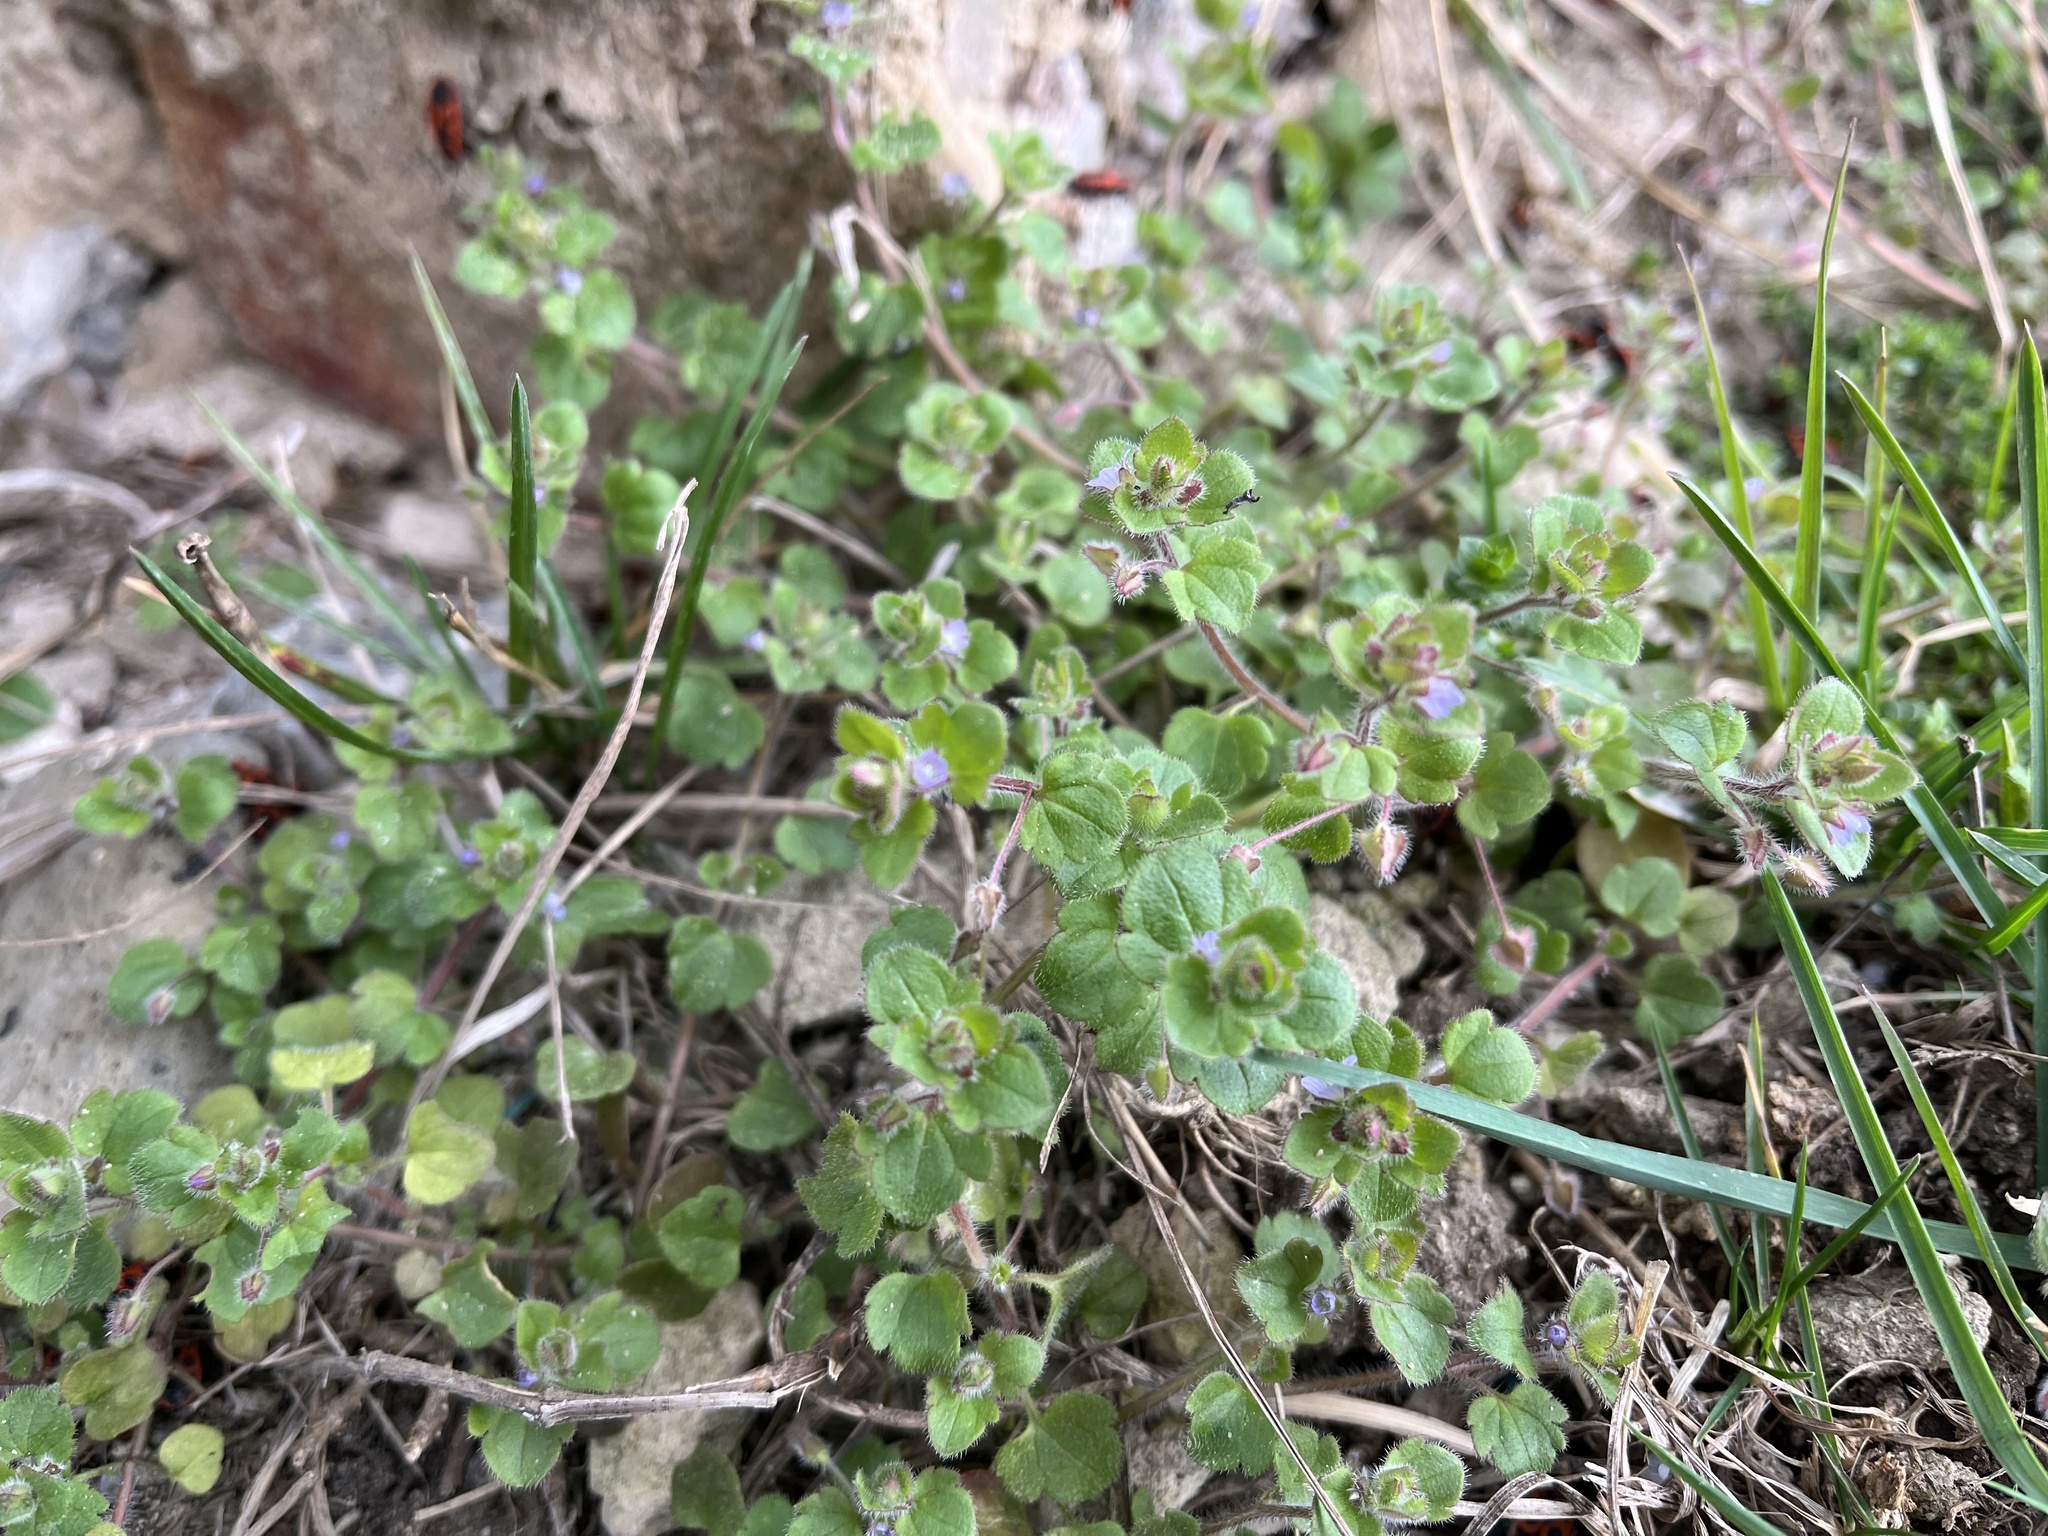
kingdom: Plantae
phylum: Tracheophyta
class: Magnoliopsida
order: Lamiales
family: Plantaginaceae
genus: Veronica
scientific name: Veronica sublobata
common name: False ivy-leaved speedwell
